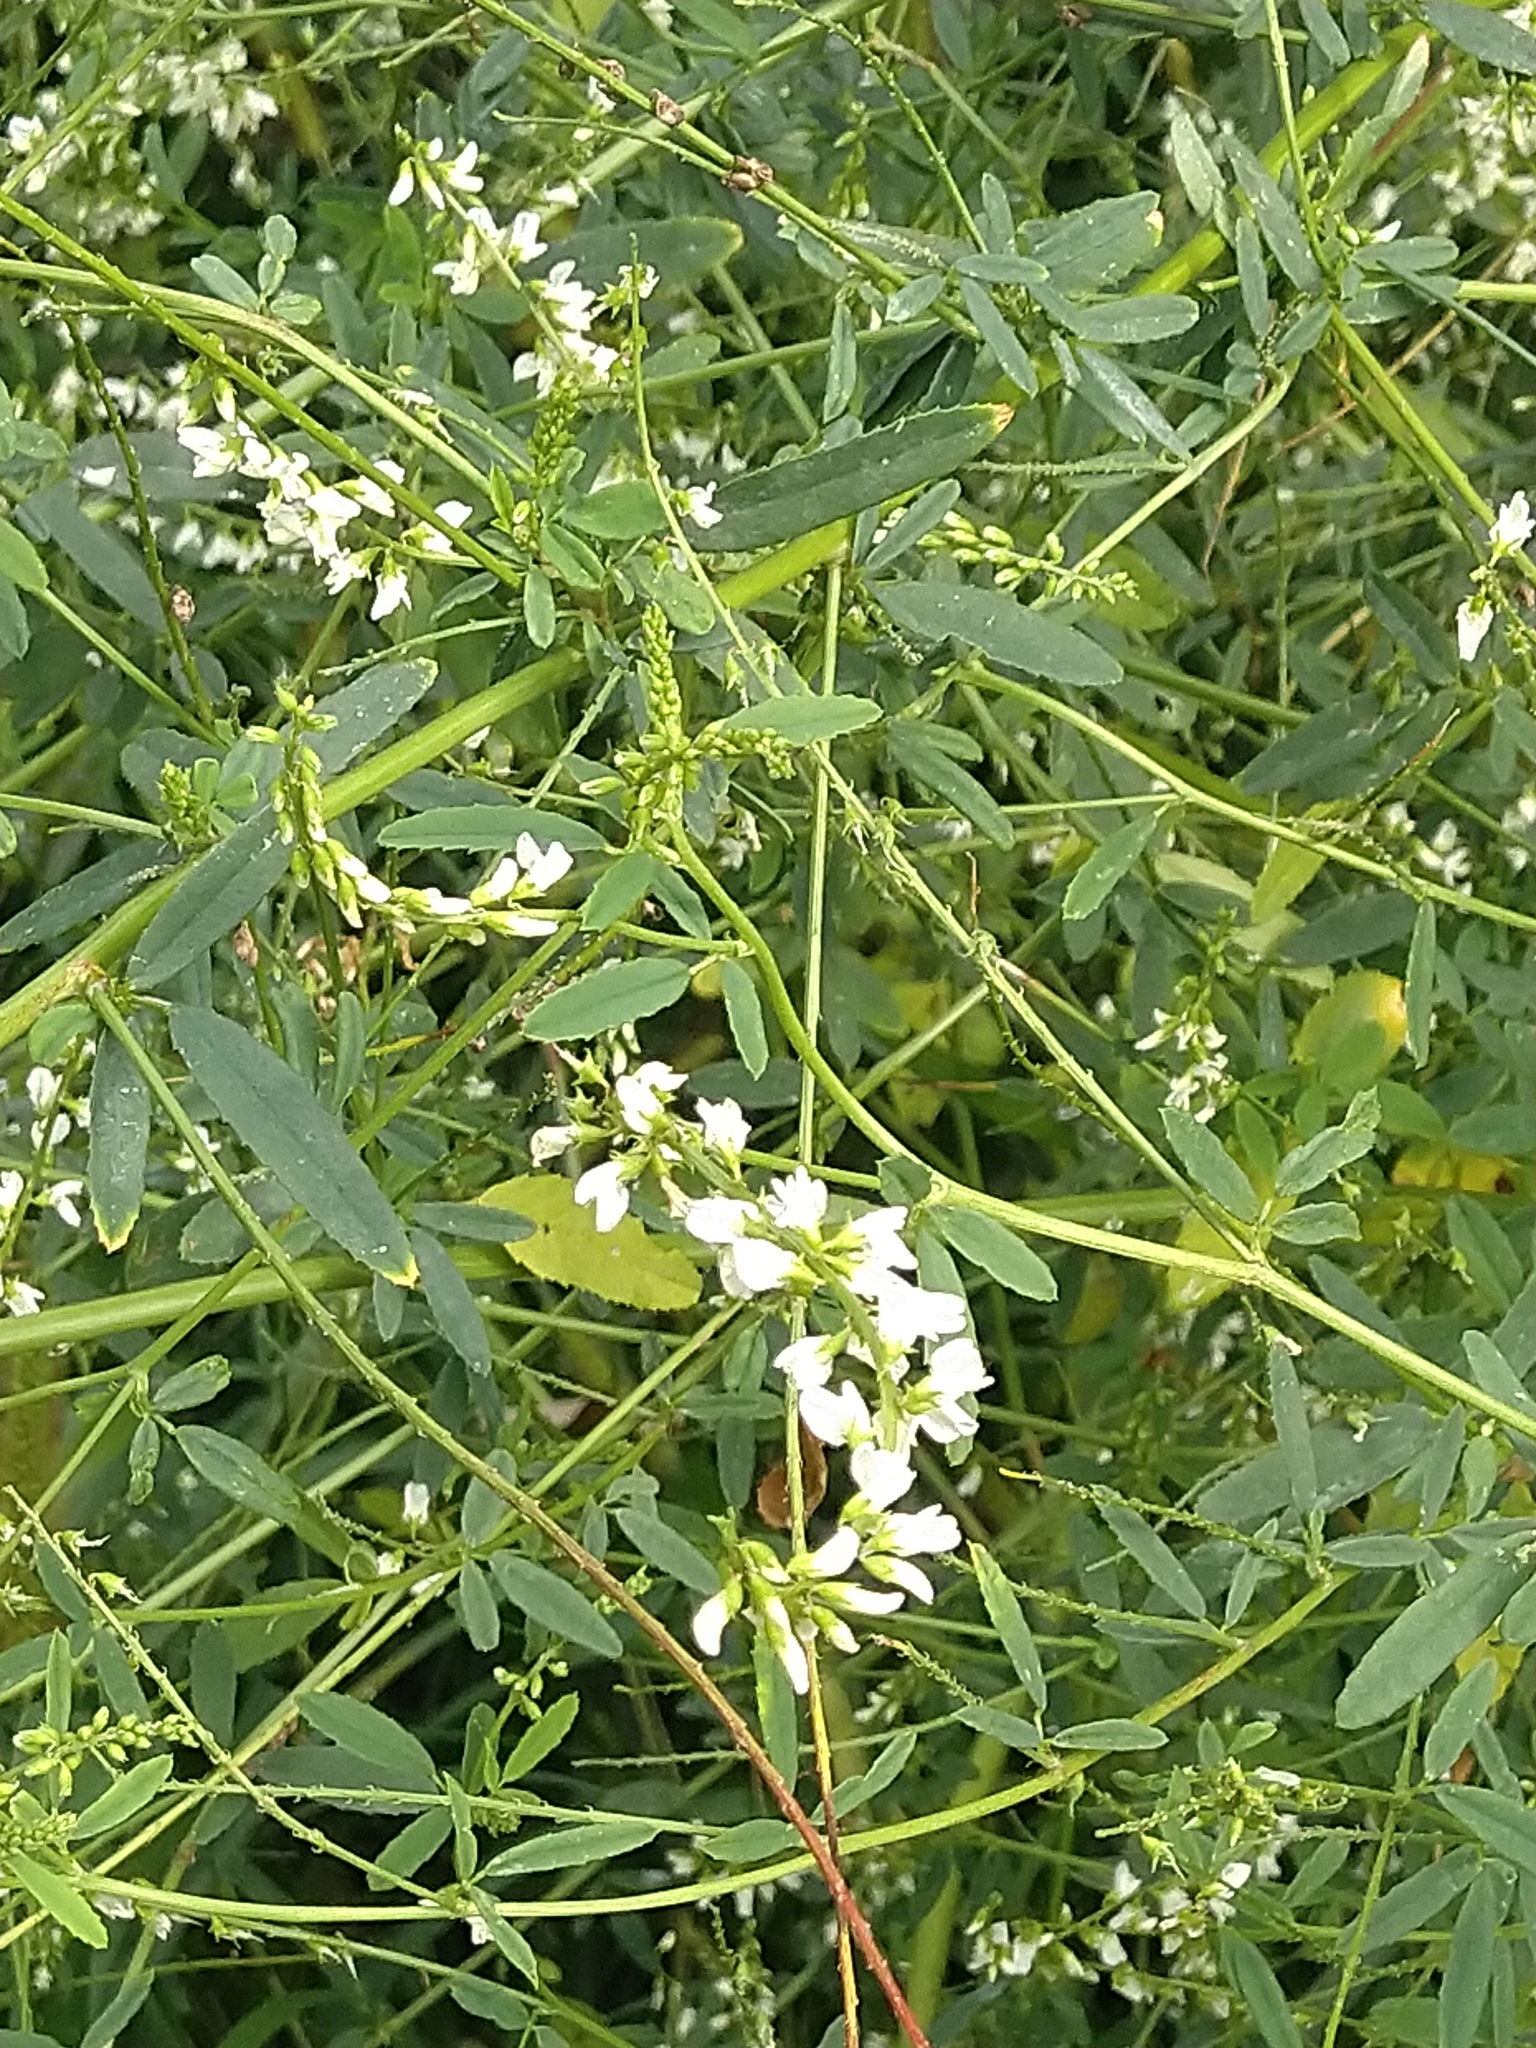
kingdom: Plantae
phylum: Tracheophyta
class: Magnoliopsida
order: Fabales
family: Fabaceae
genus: Melilotus
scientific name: Melilotus albus
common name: White melilot
